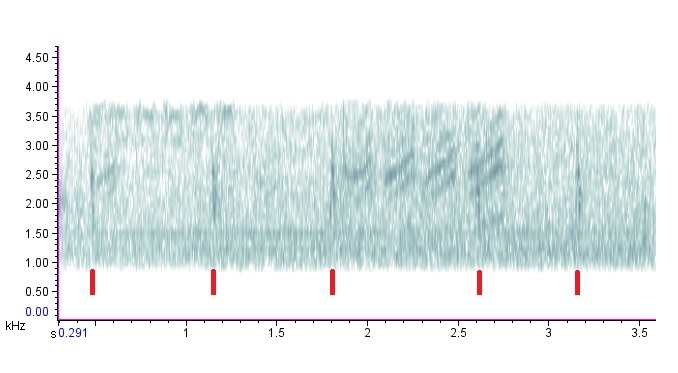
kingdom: Animalia
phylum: Chordata
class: Aves
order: Passeriformes
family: Turdidae
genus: Catharus
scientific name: Catharus guttatus
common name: Hermit thrush
